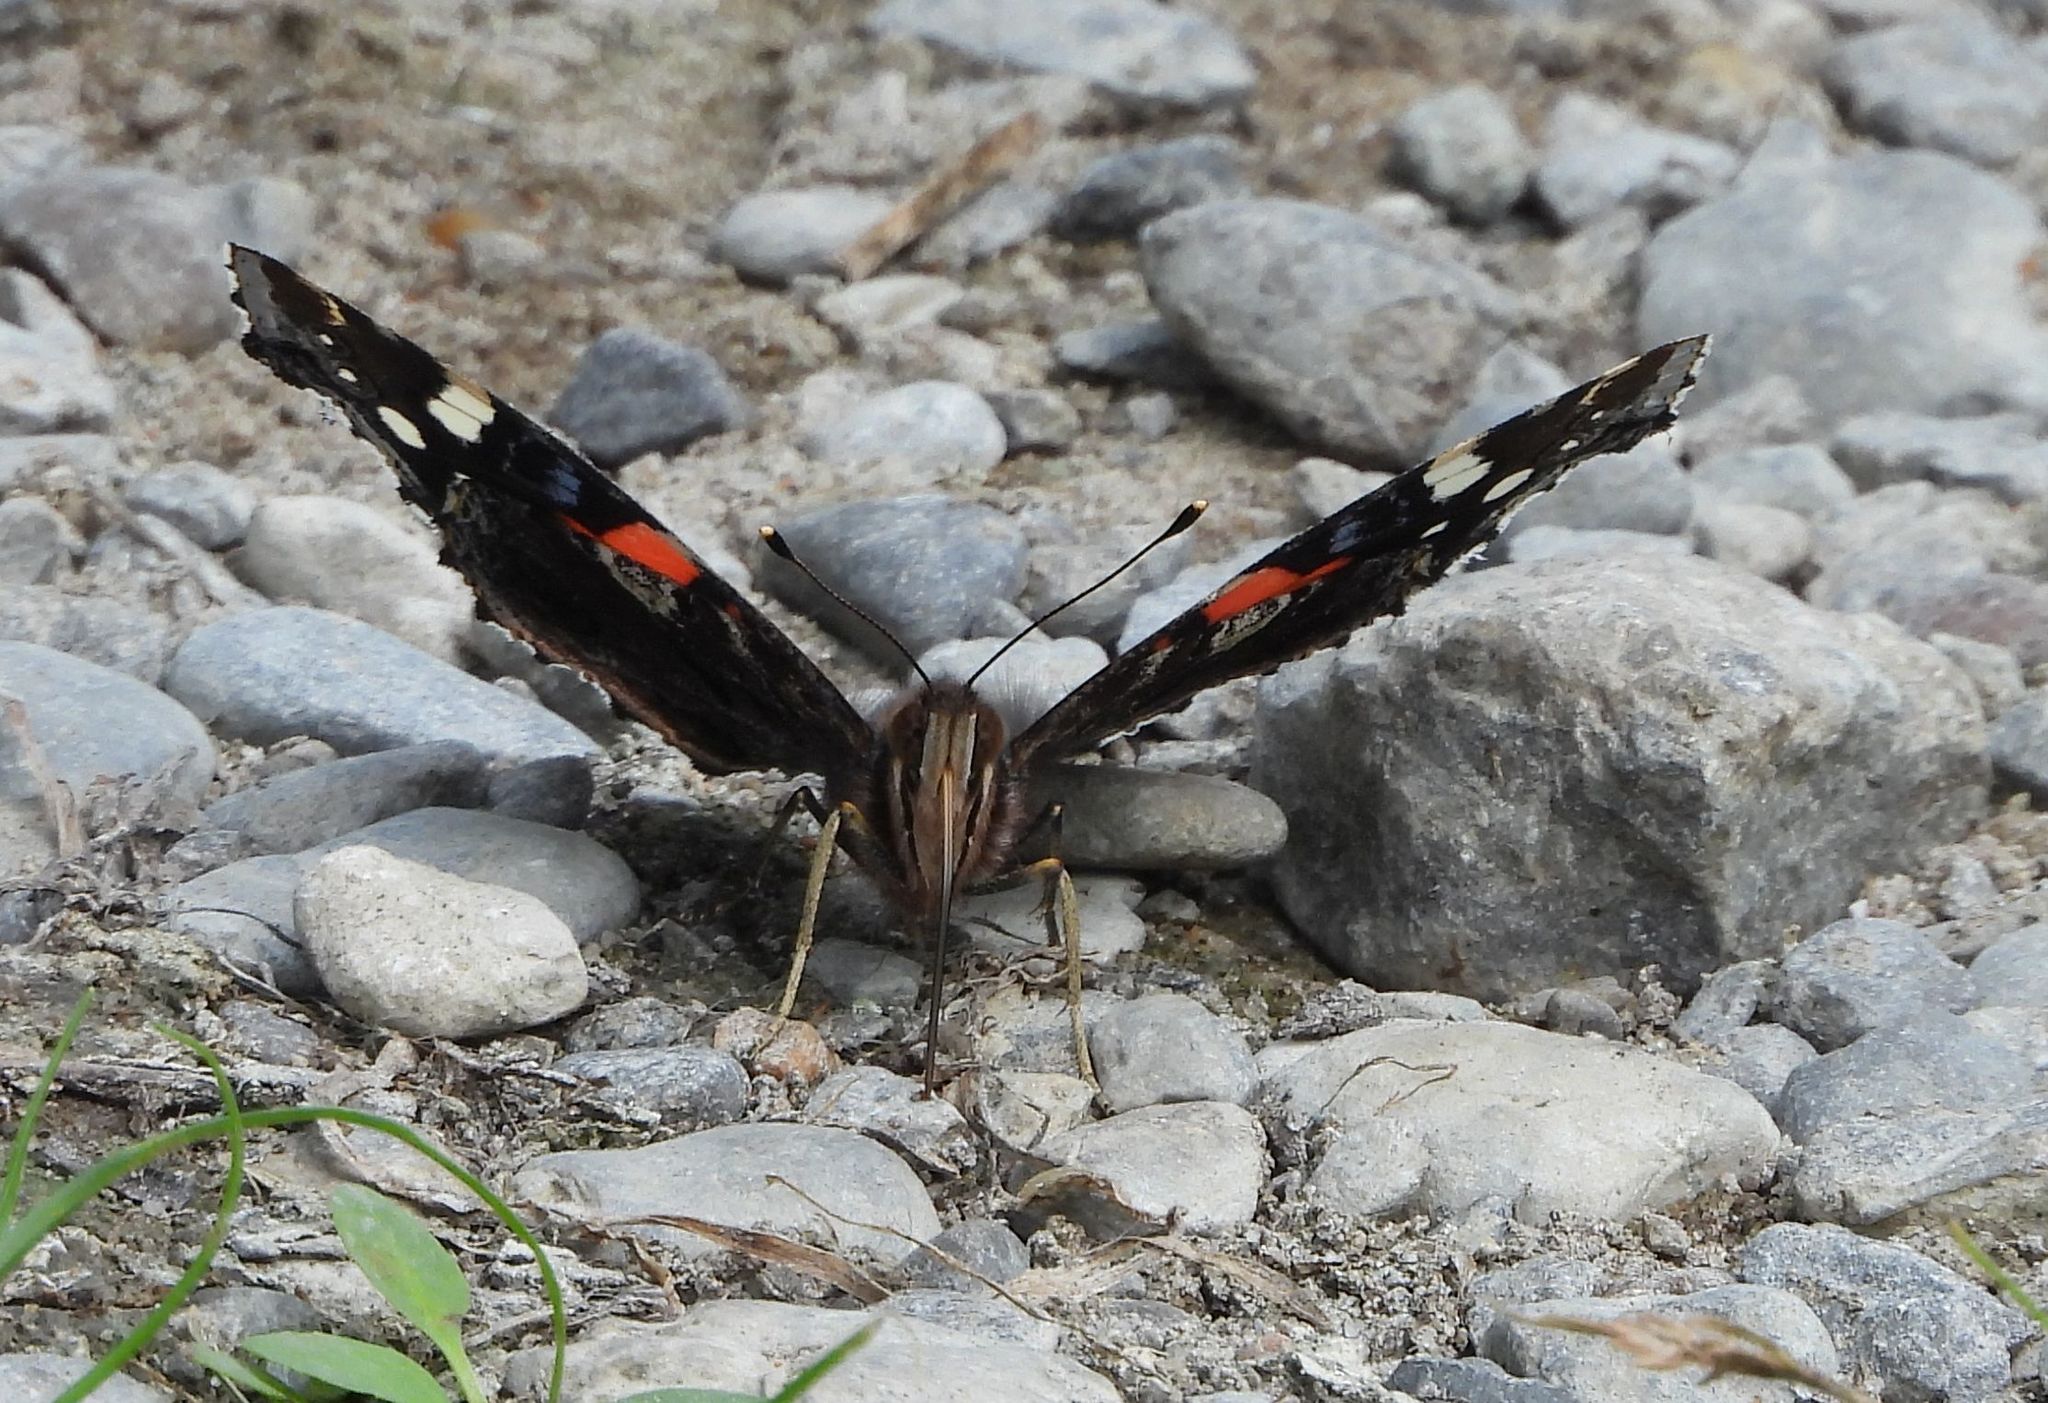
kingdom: Animalia
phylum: Arthropoda
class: Insecta
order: Lepidoptera
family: Nymphalidae
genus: Vanessa
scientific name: Vanessa atalanta
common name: Red admiral
